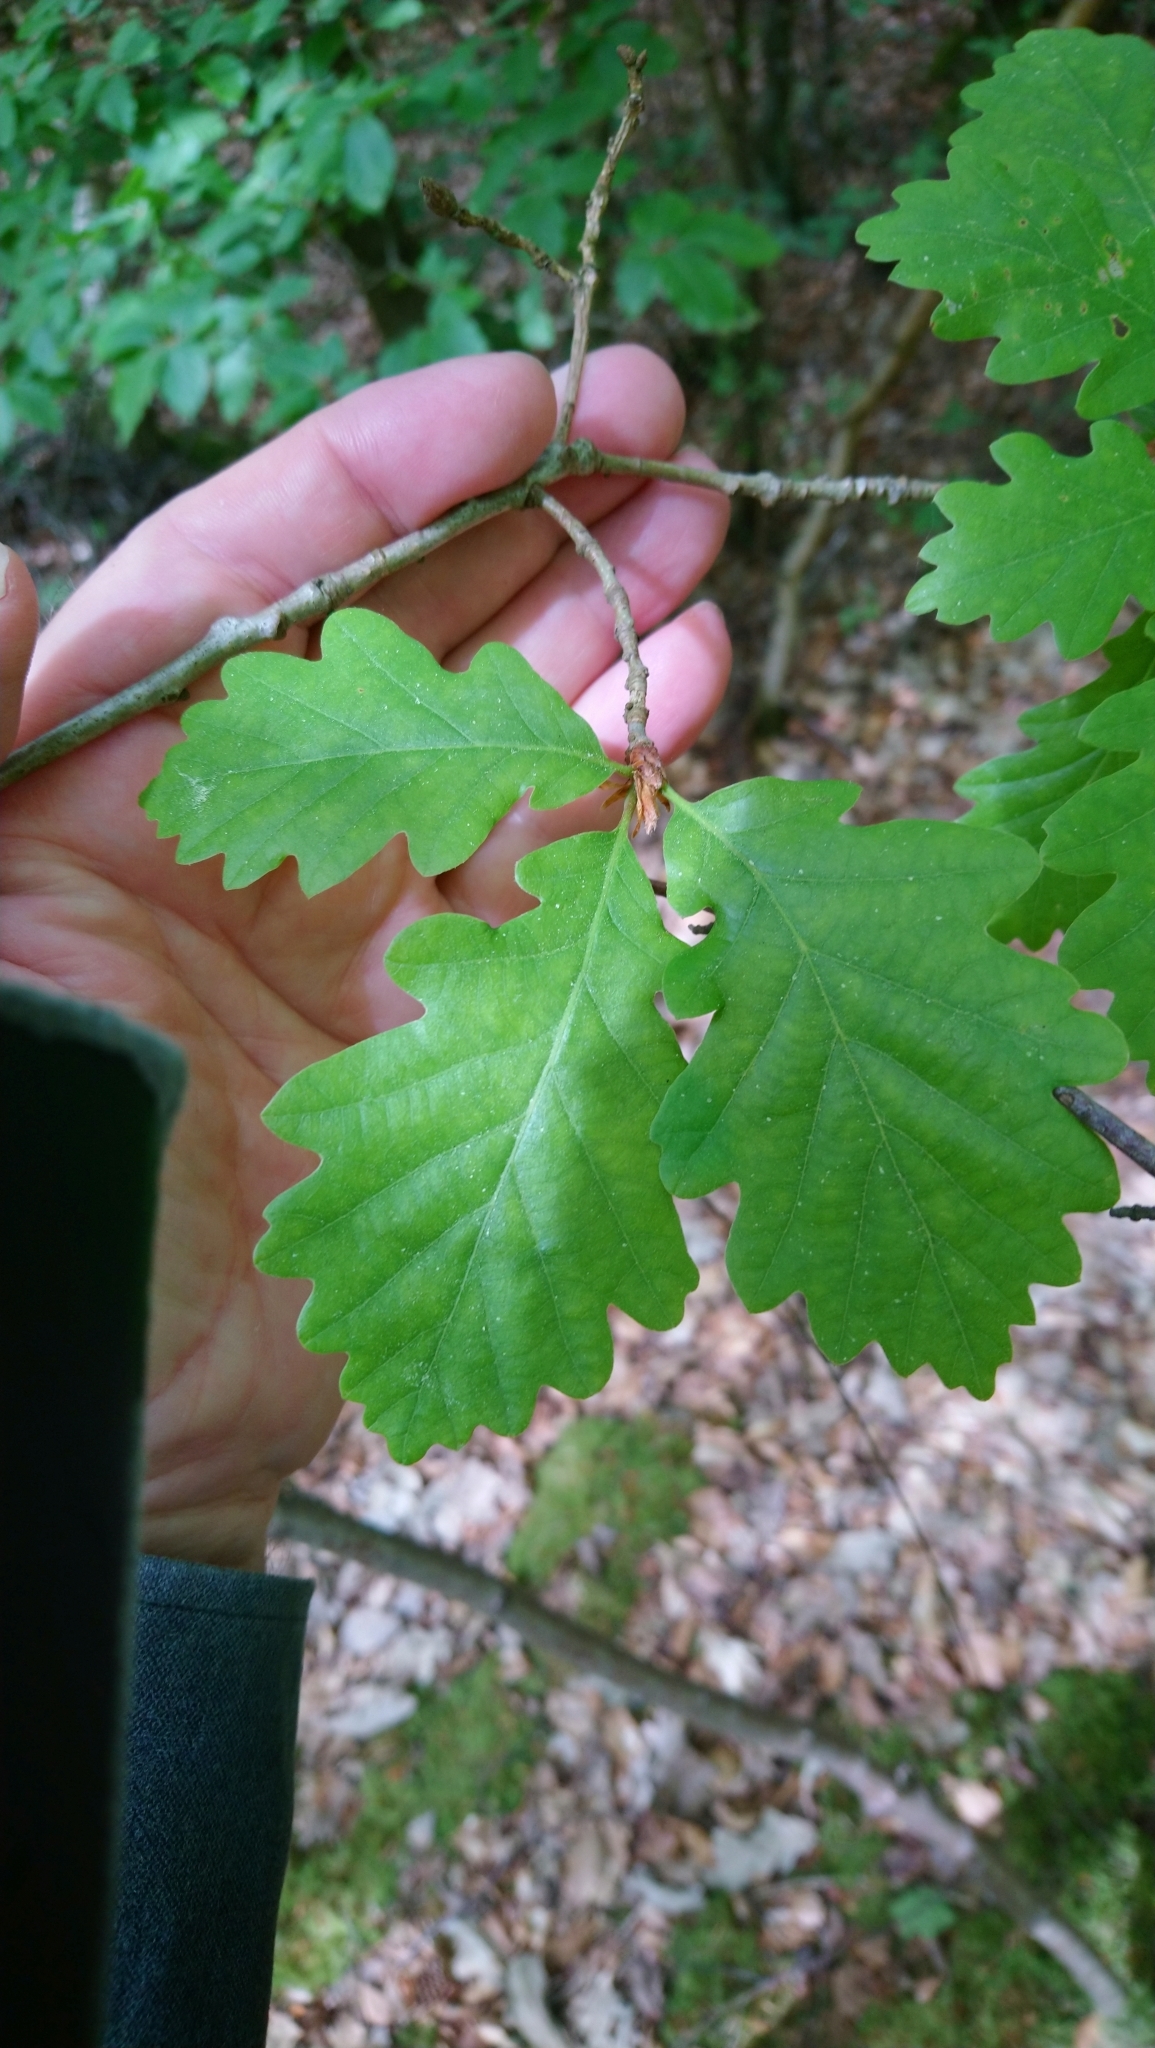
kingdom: Plantae
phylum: Tracheophyta
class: Magnoliopsida
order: Fagales
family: Fagaceae
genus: Quercus
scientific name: Quercus petraea
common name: Sessile oak
